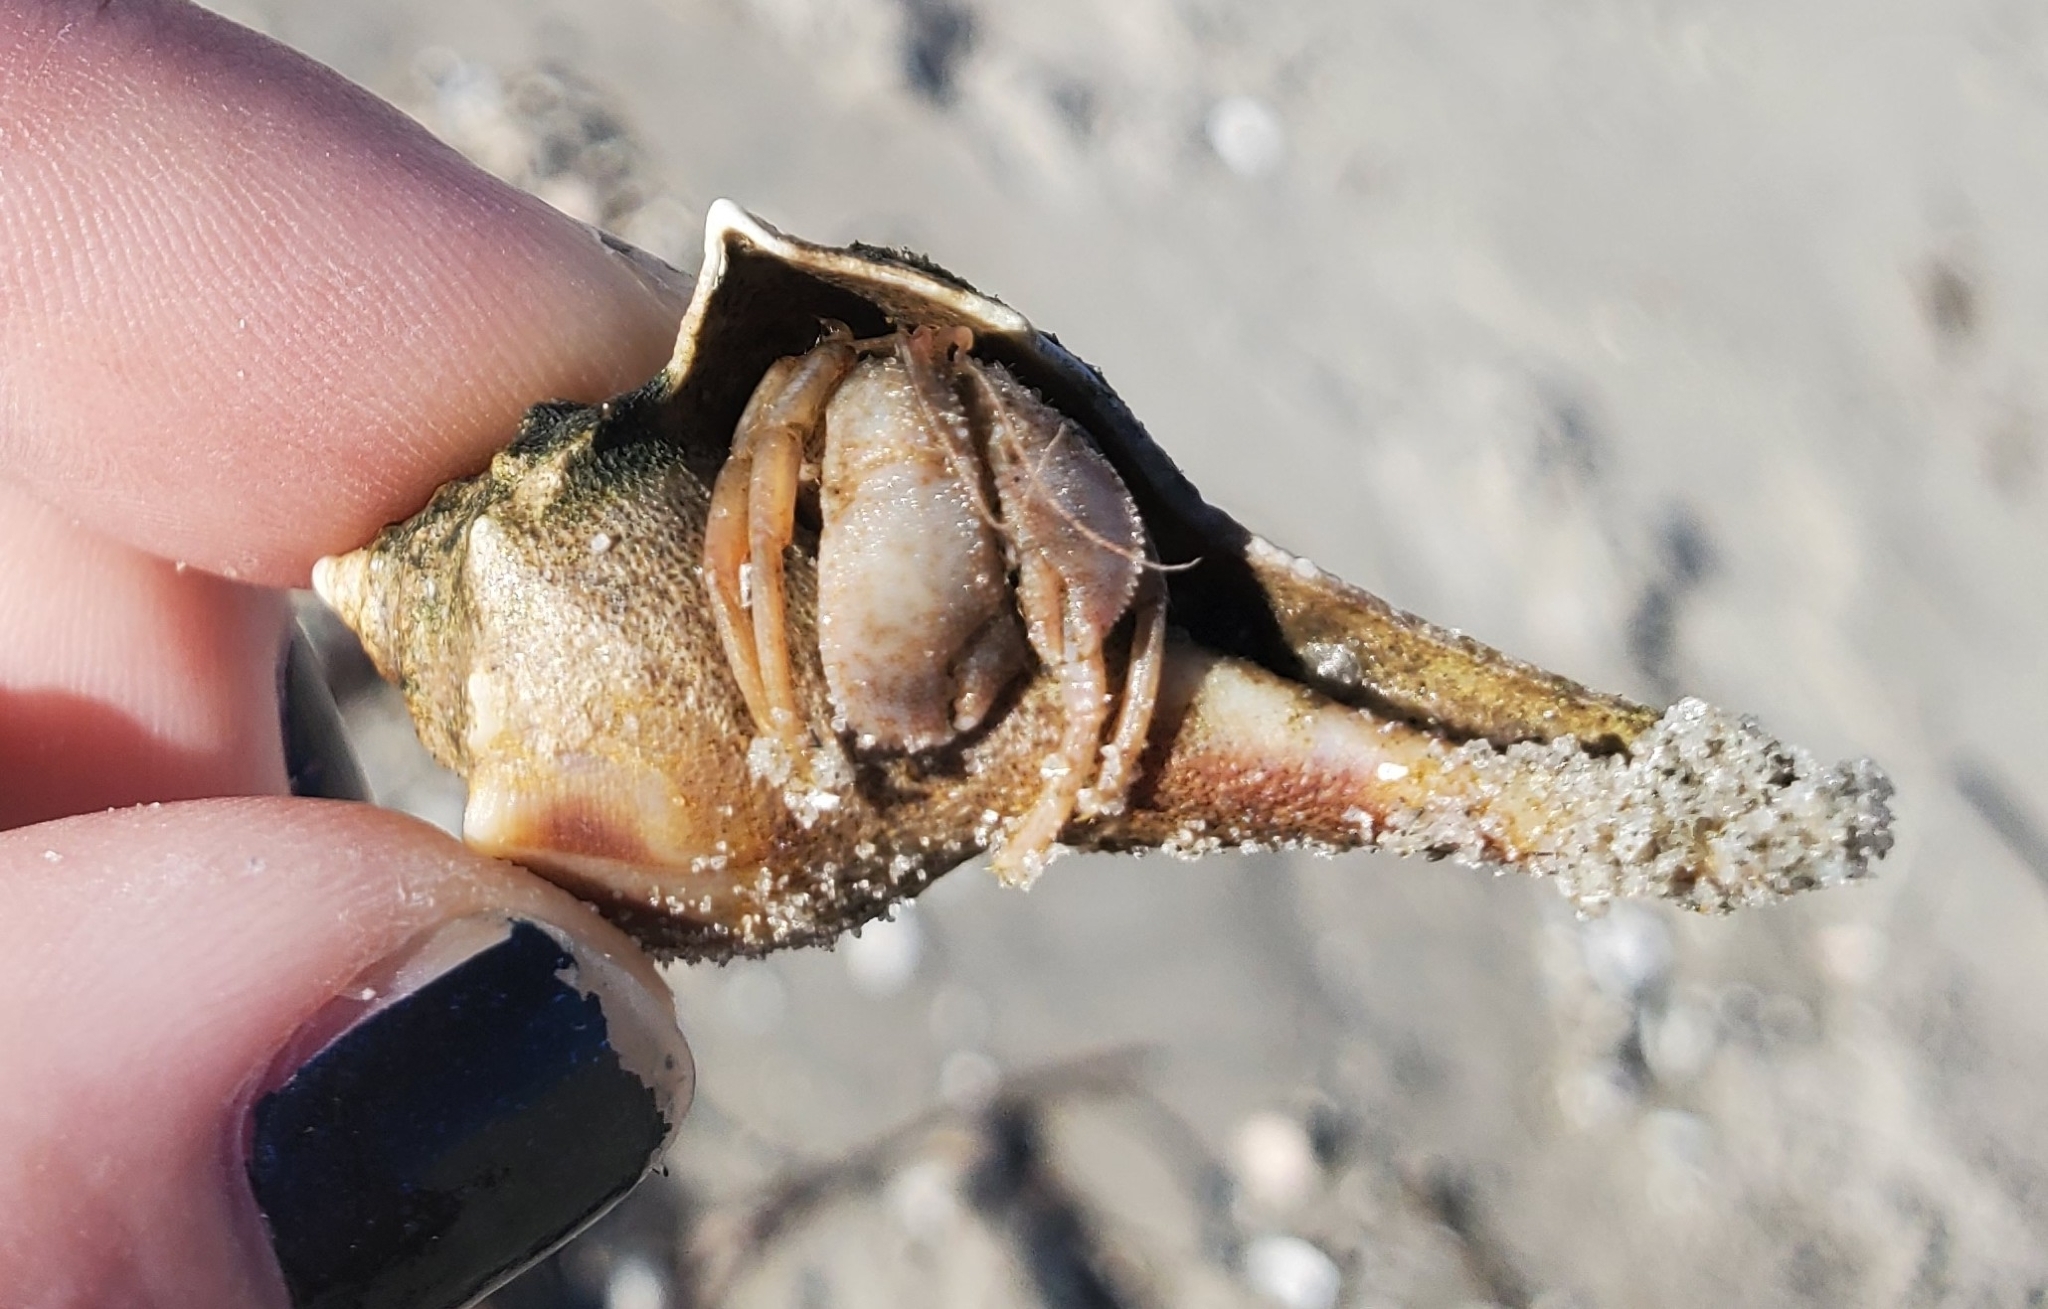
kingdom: Animalia
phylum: Mollusca
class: Gastropoda
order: Neogastropoda
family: Busyconidae
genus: Busycon
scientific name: Busycon carica
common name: Knobbed whelk
